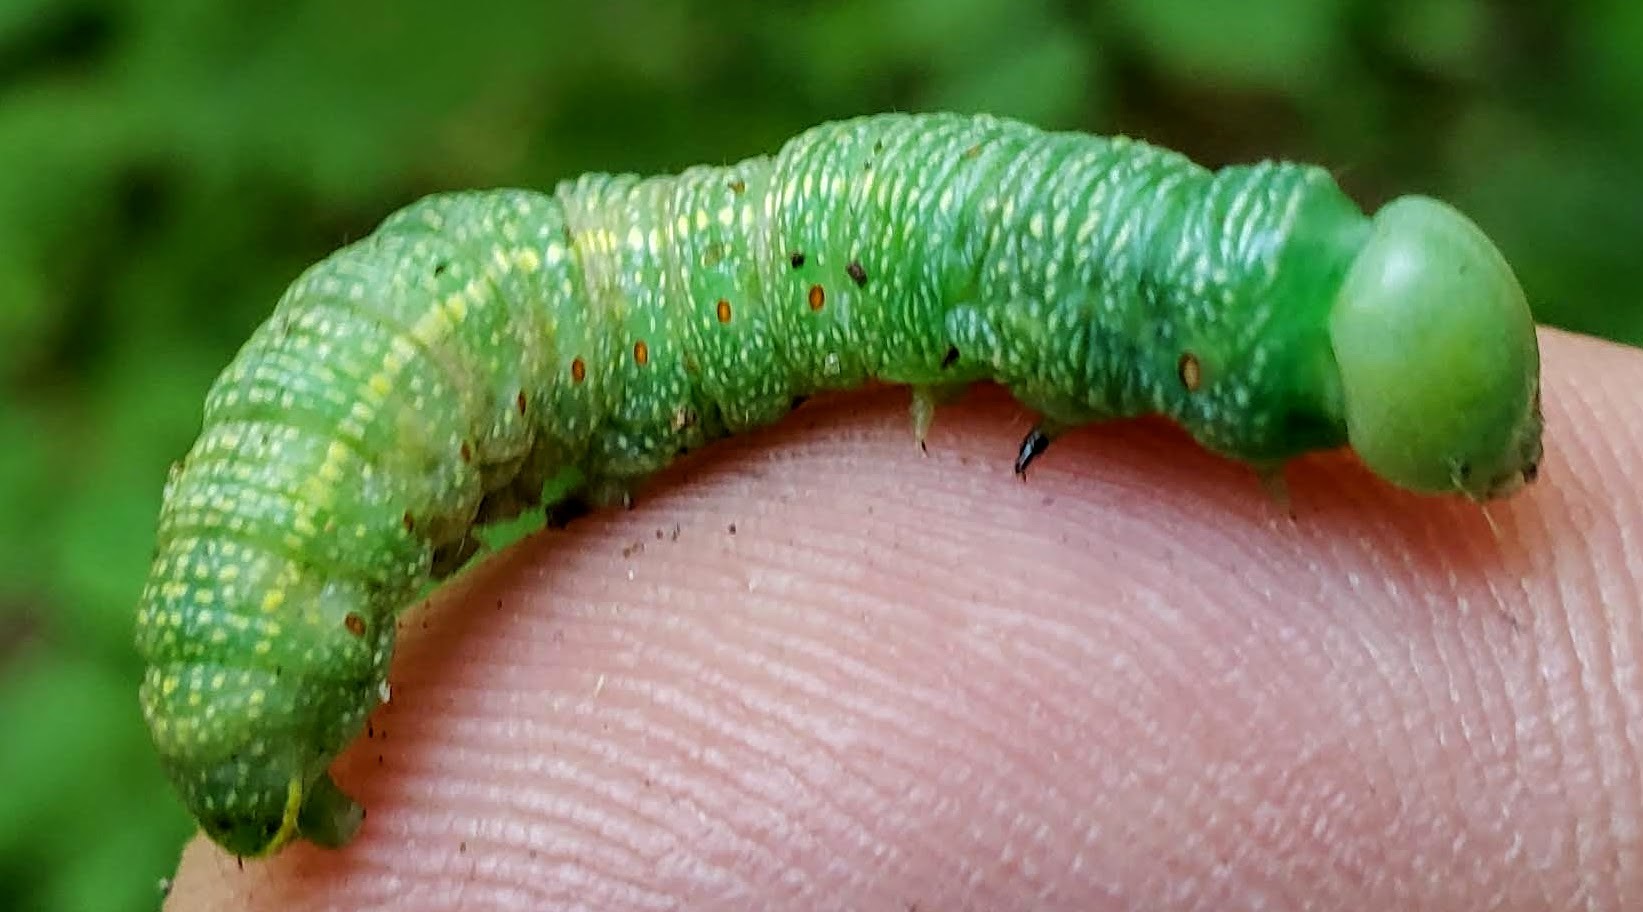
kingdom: Animalia
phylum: Arthropoda
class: Insecta
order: Lepidoptera
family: Notodontidae
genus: Nadata
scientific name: Nadata gibbosa
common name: White-dotted prominent
